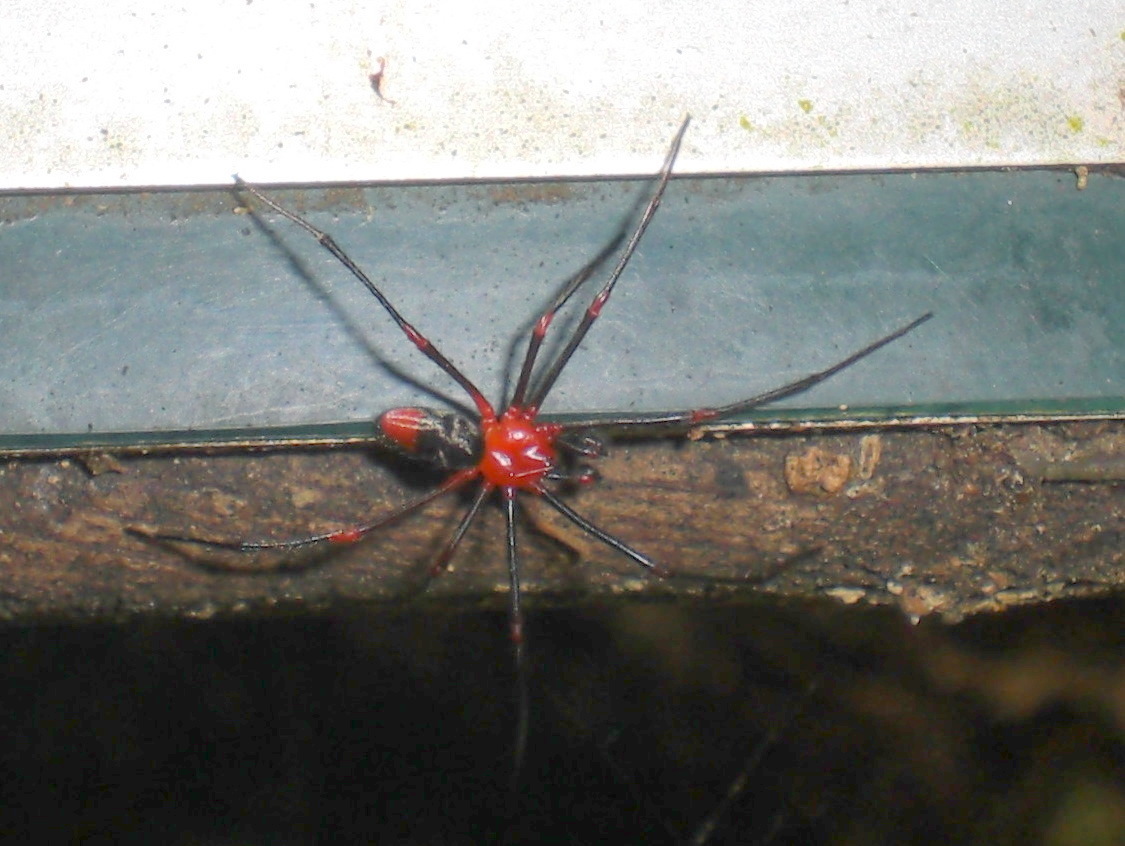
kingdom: Animalia
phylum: Arthropoda
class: Arachnida
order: Araneae
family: Nicodamidae
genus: Dimidamus
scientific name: Dimidamus dimidiatus
